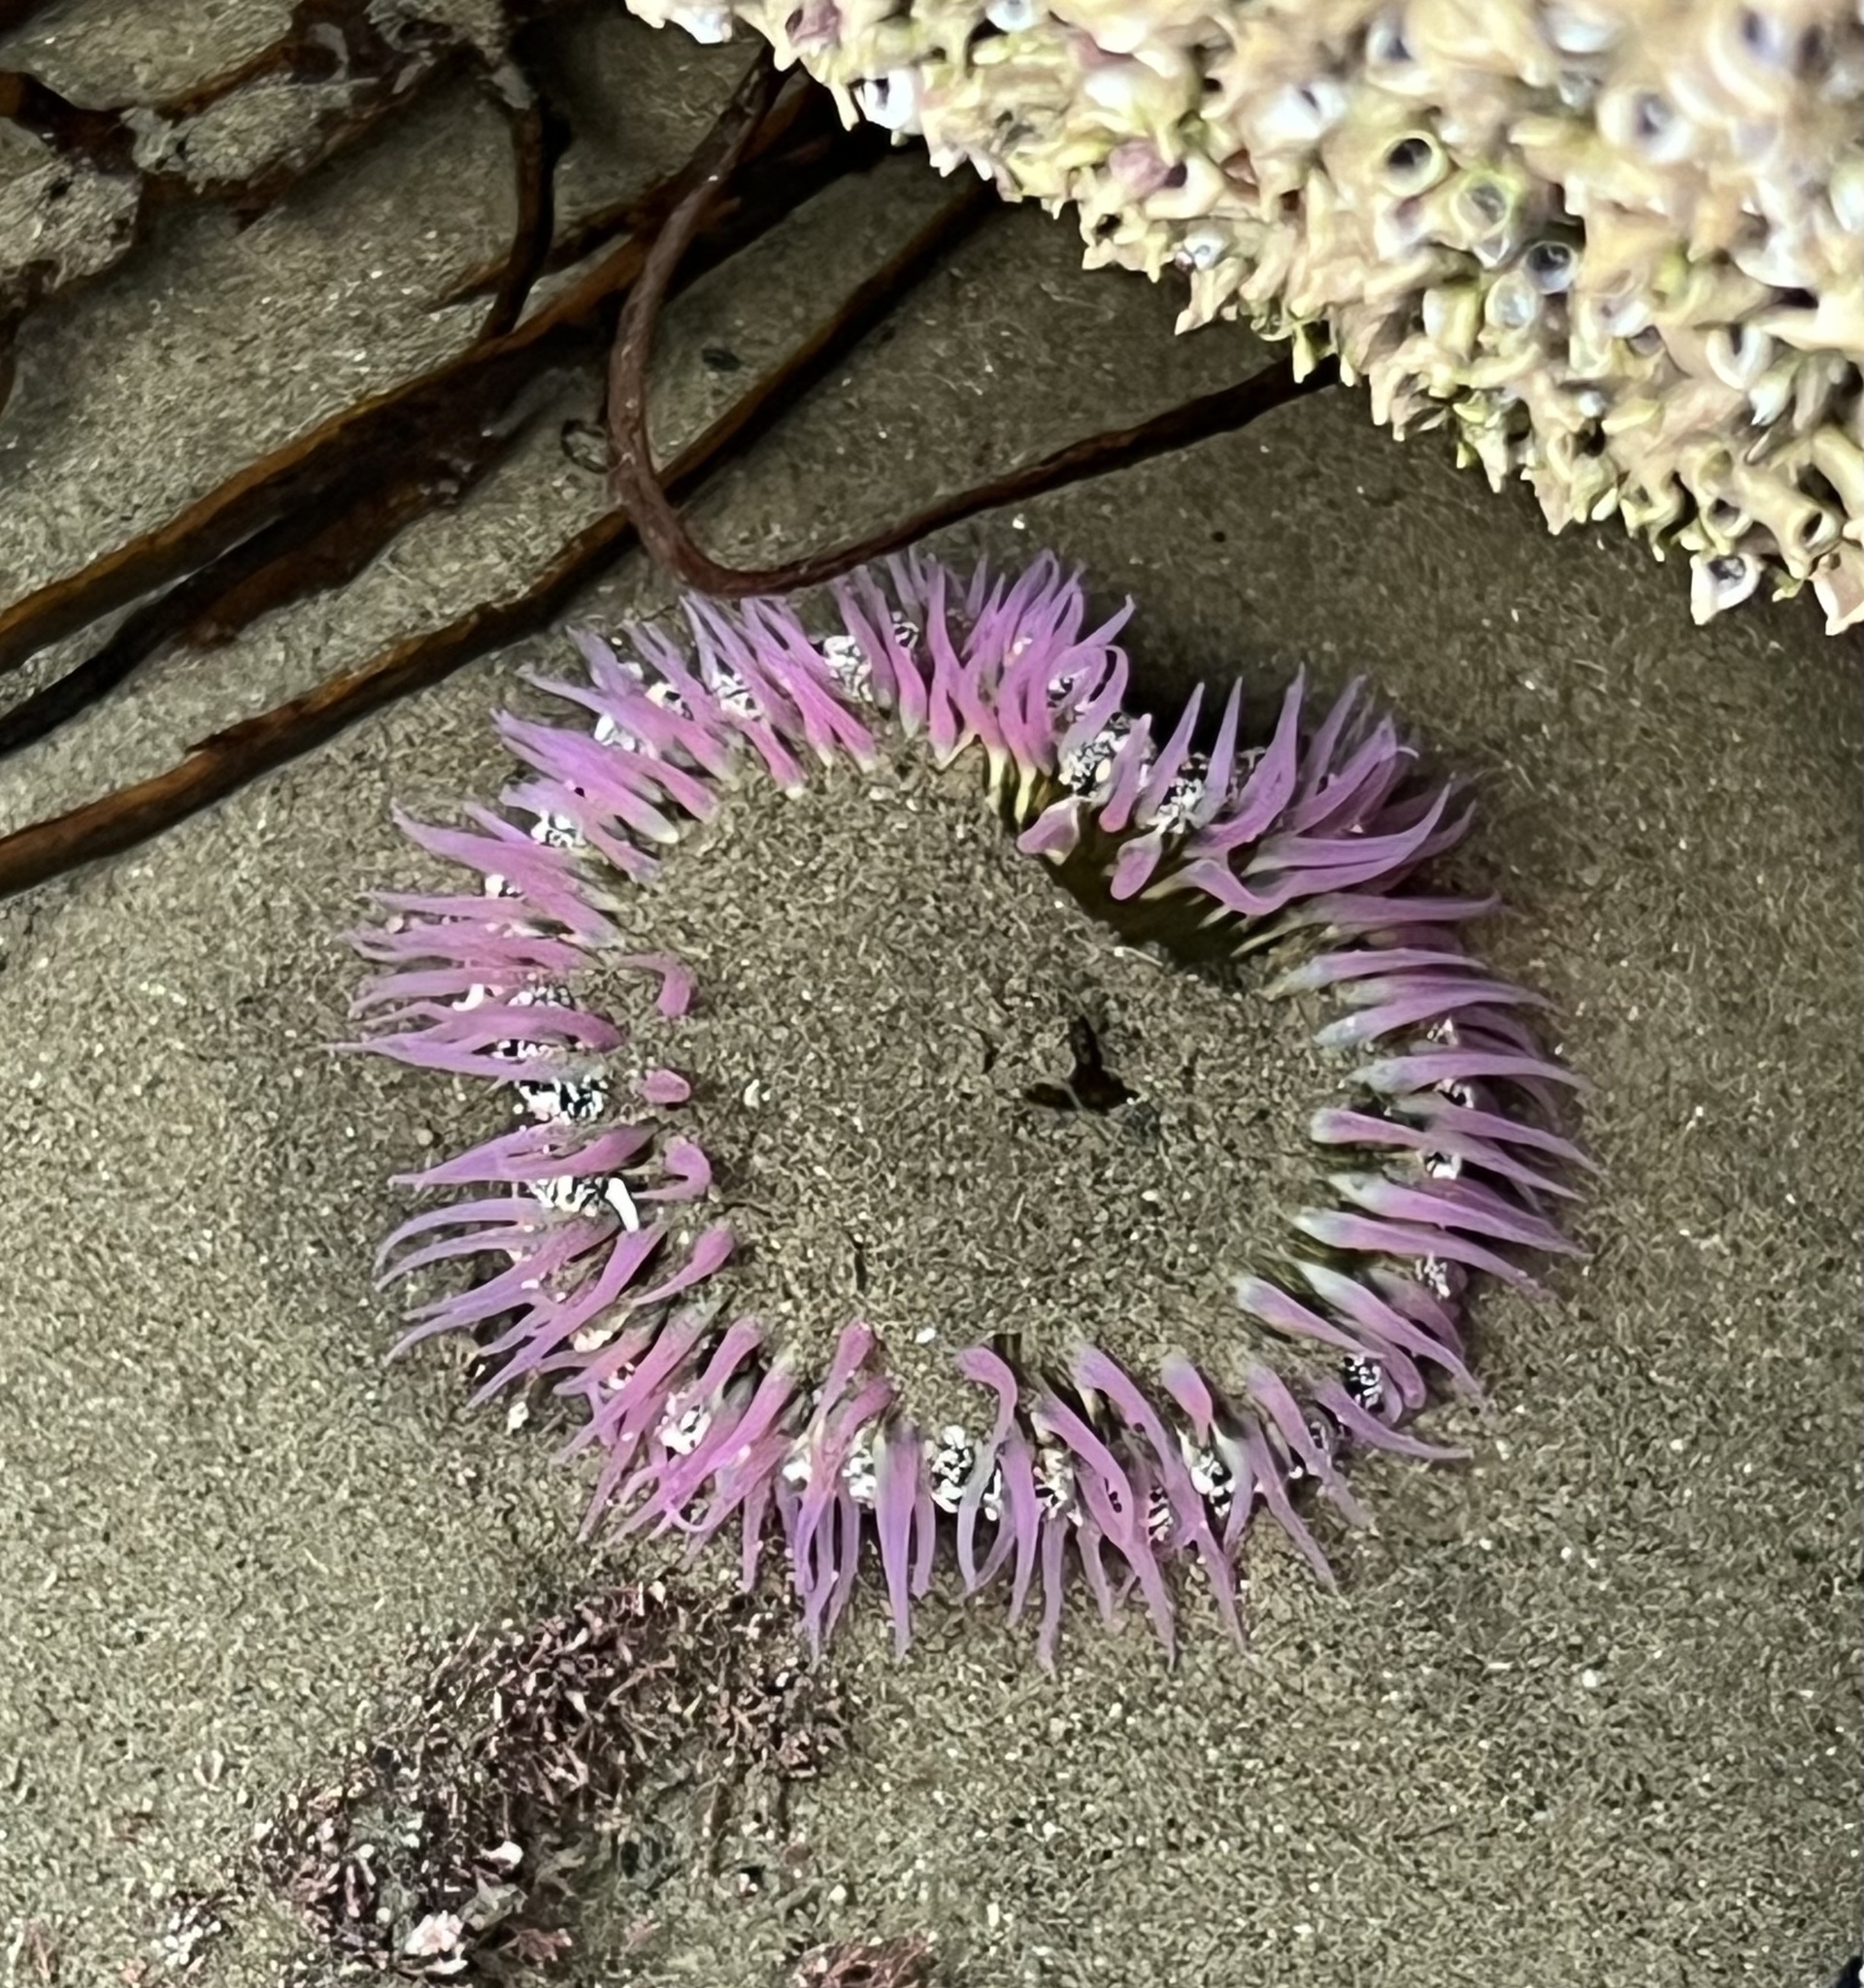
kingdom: Animalia
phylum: Cnidaria
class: Anthozoa
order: Actiniaria
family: Actiniidae
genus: Oulactis
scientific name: Oulactis magna
